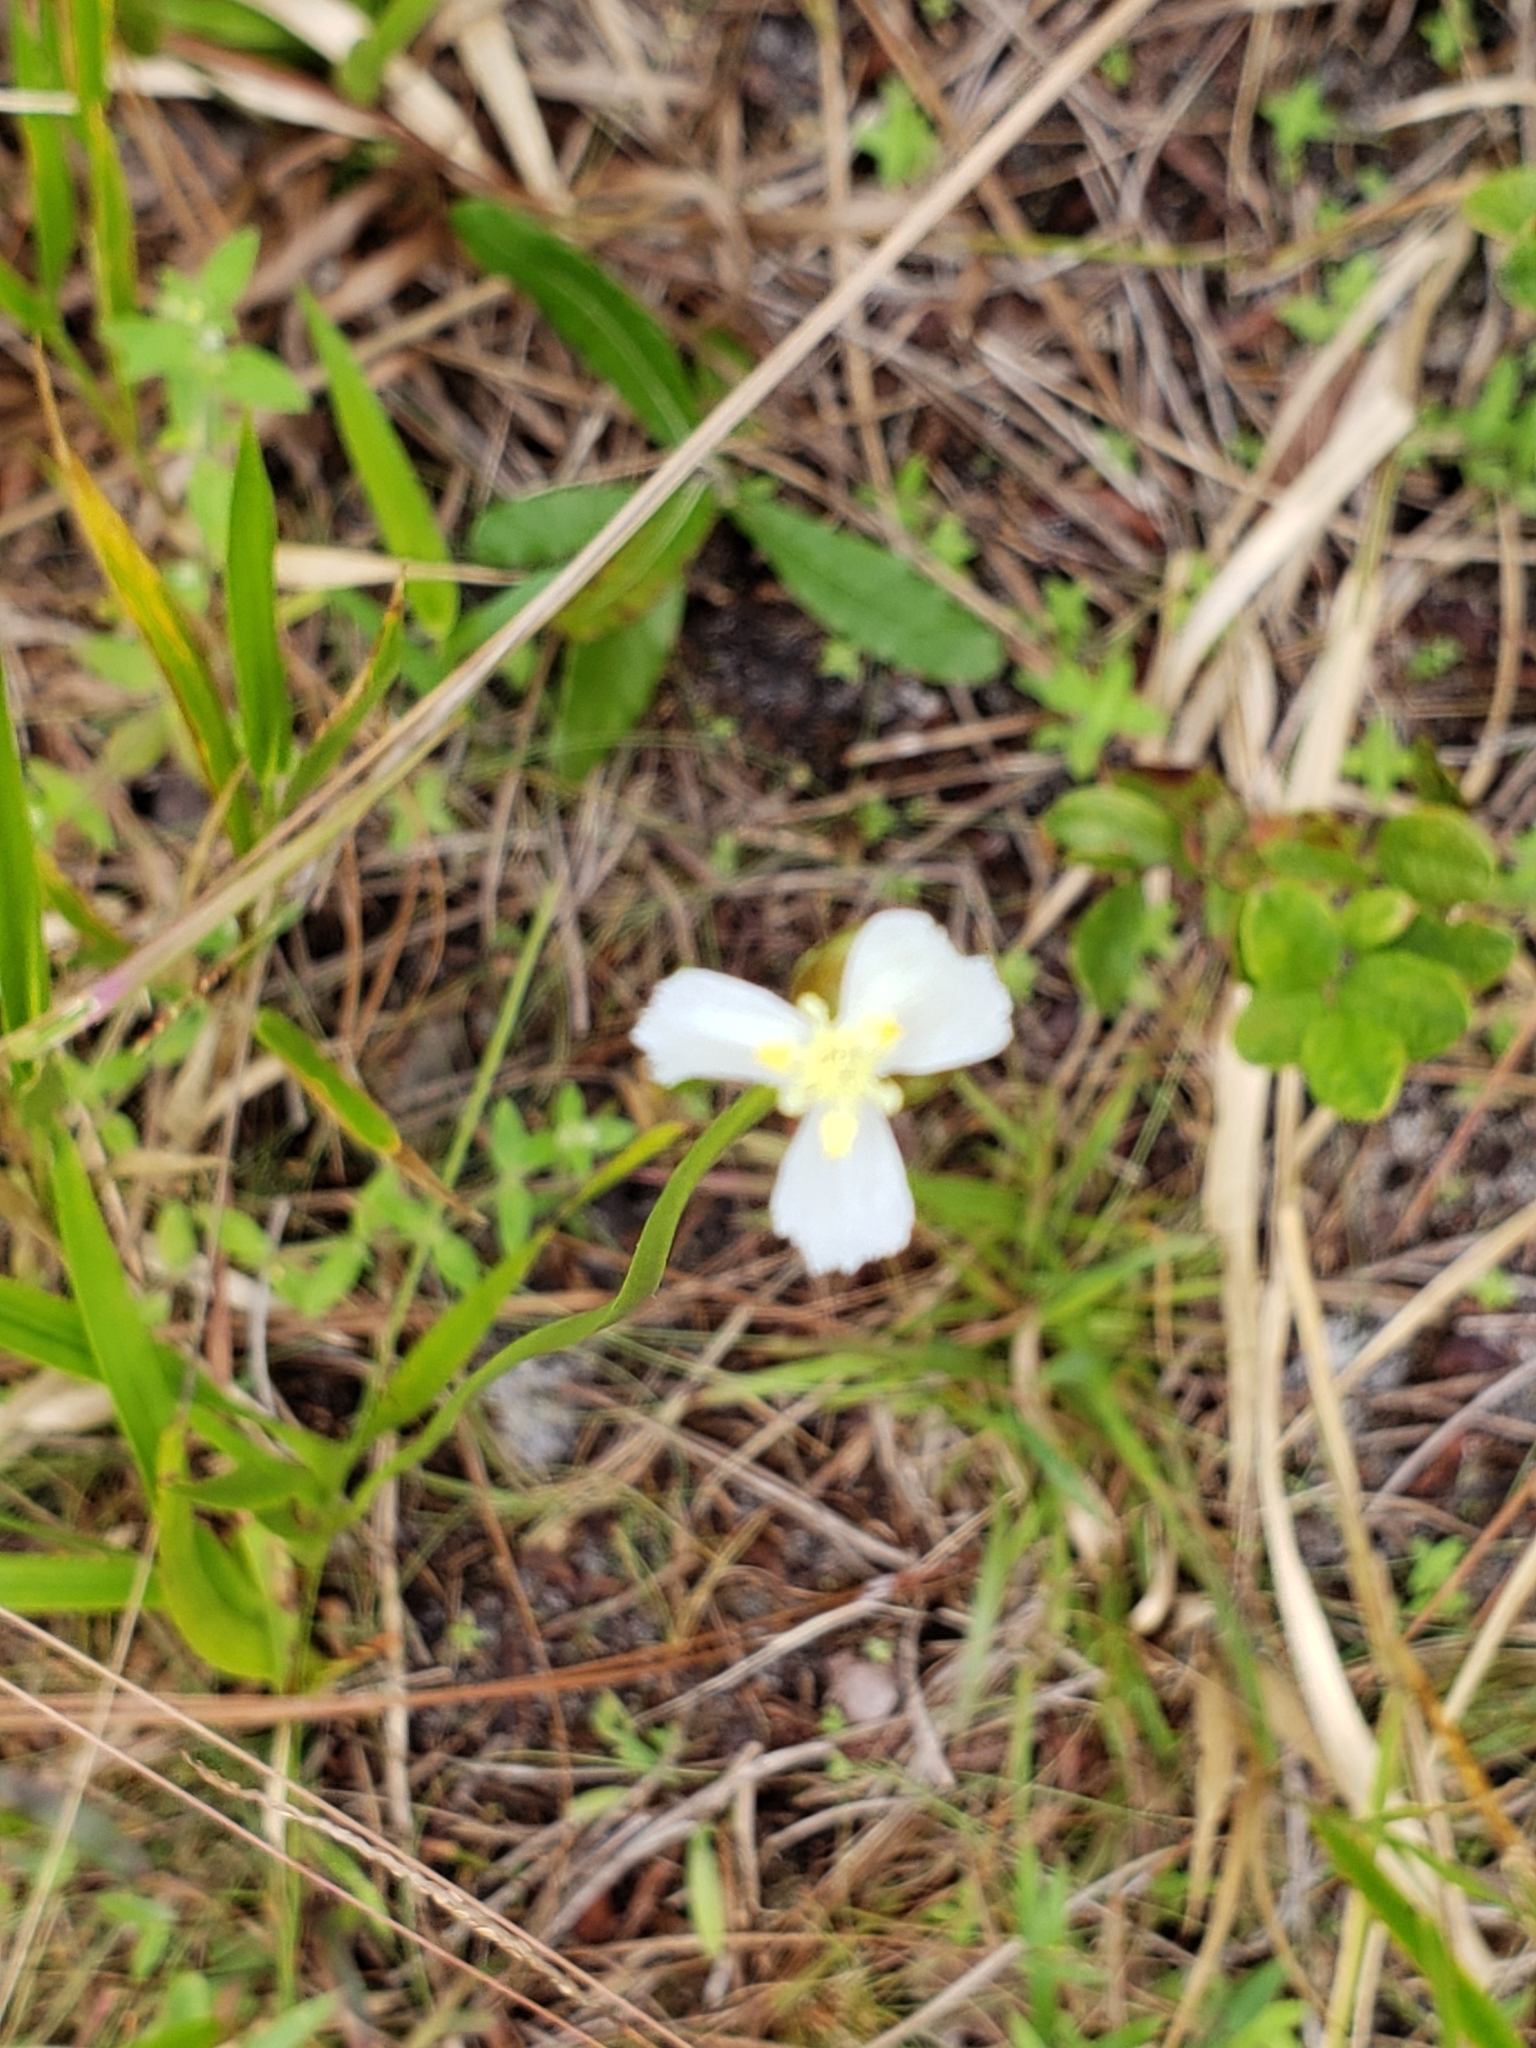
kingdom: Plantae
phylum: Tracheophyta
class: Liliopsida
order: Poales
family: Xyridaceae
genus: Xyris
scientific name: Xyris caroliniana
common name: Carolina yellow-eyed-grass
